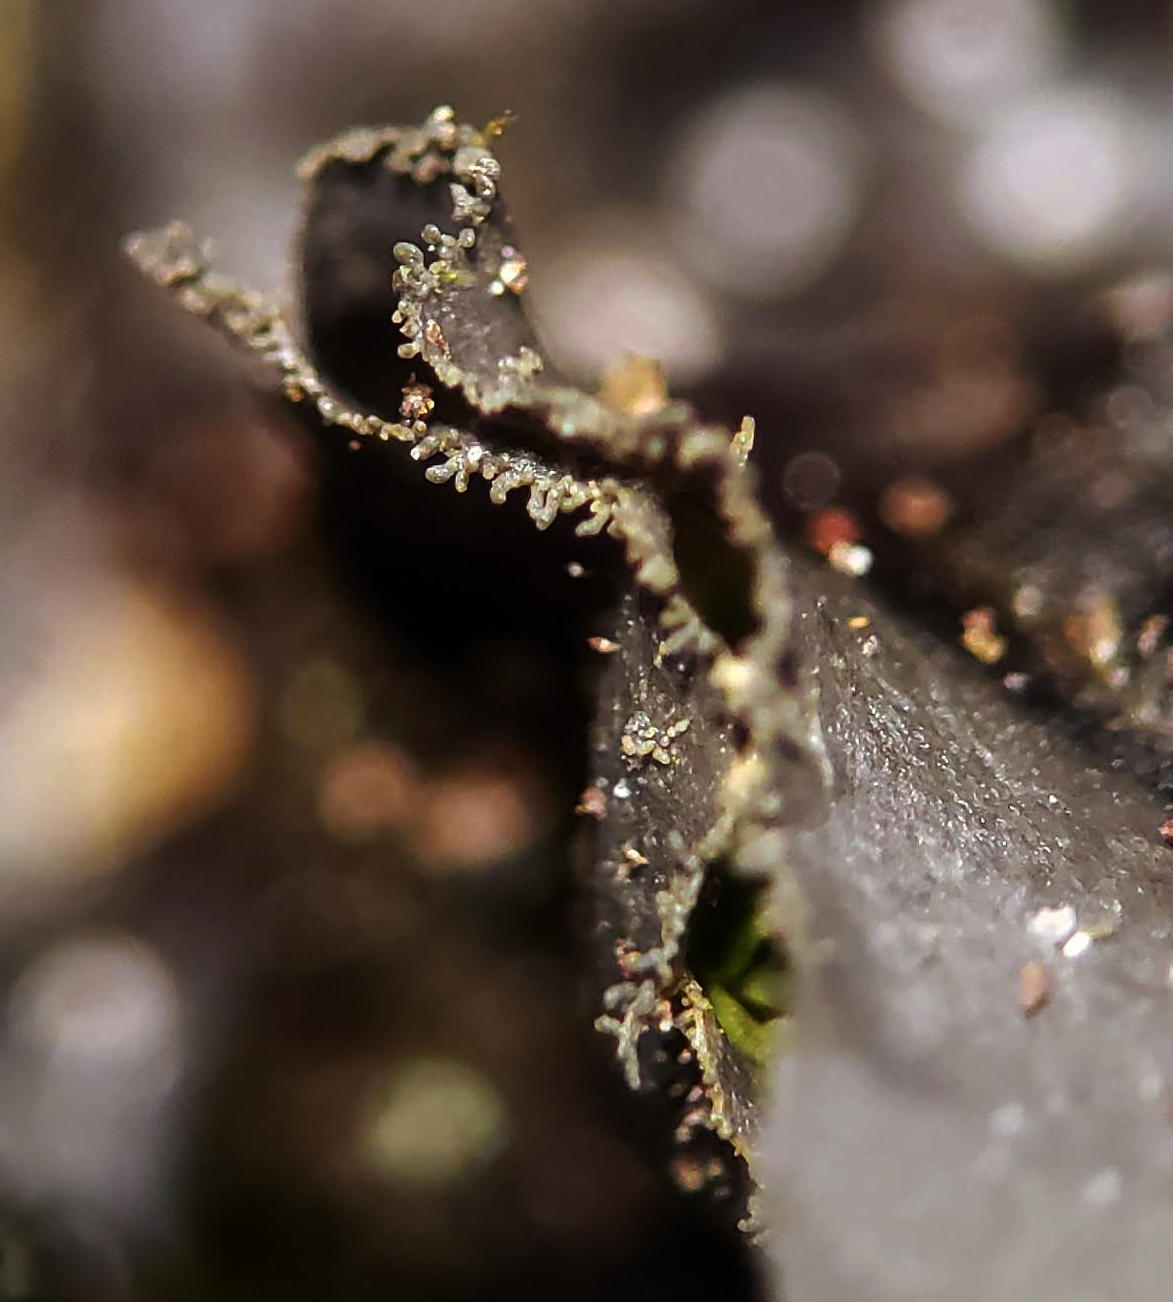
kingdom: Fungi
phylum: Ascomycota
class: Lecanoromycetes
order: Peltigerales
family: Collemataceae
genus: Leptogium
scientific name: Leptogium cyanescens
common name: Blue jellyskin
